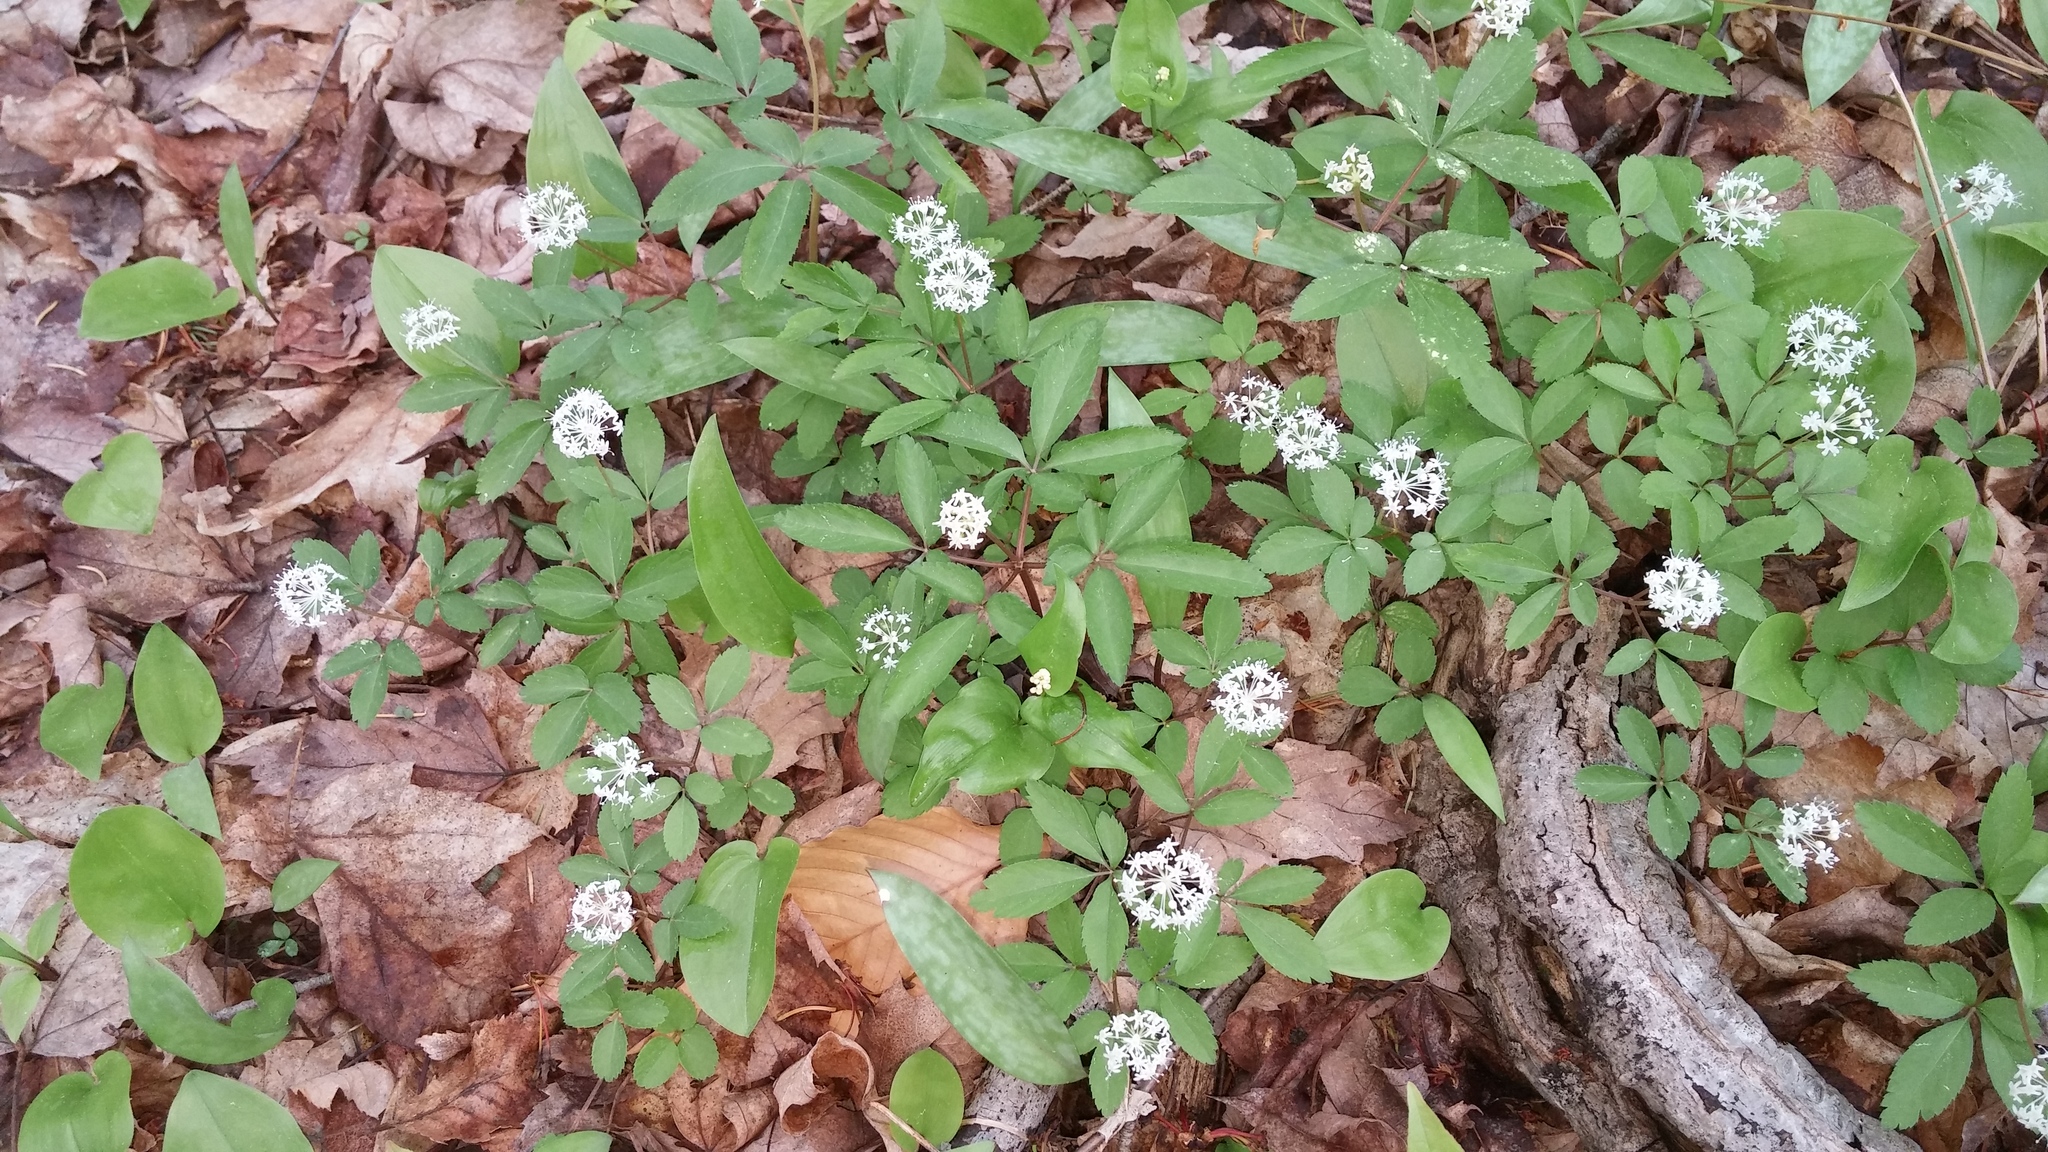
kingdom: Plantae
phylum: Tracheophyta
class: Magnoliopsida
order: Apiales
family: Araliaceae
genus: Panax
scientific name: Panax trifolius
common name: Dwarf ginseng
